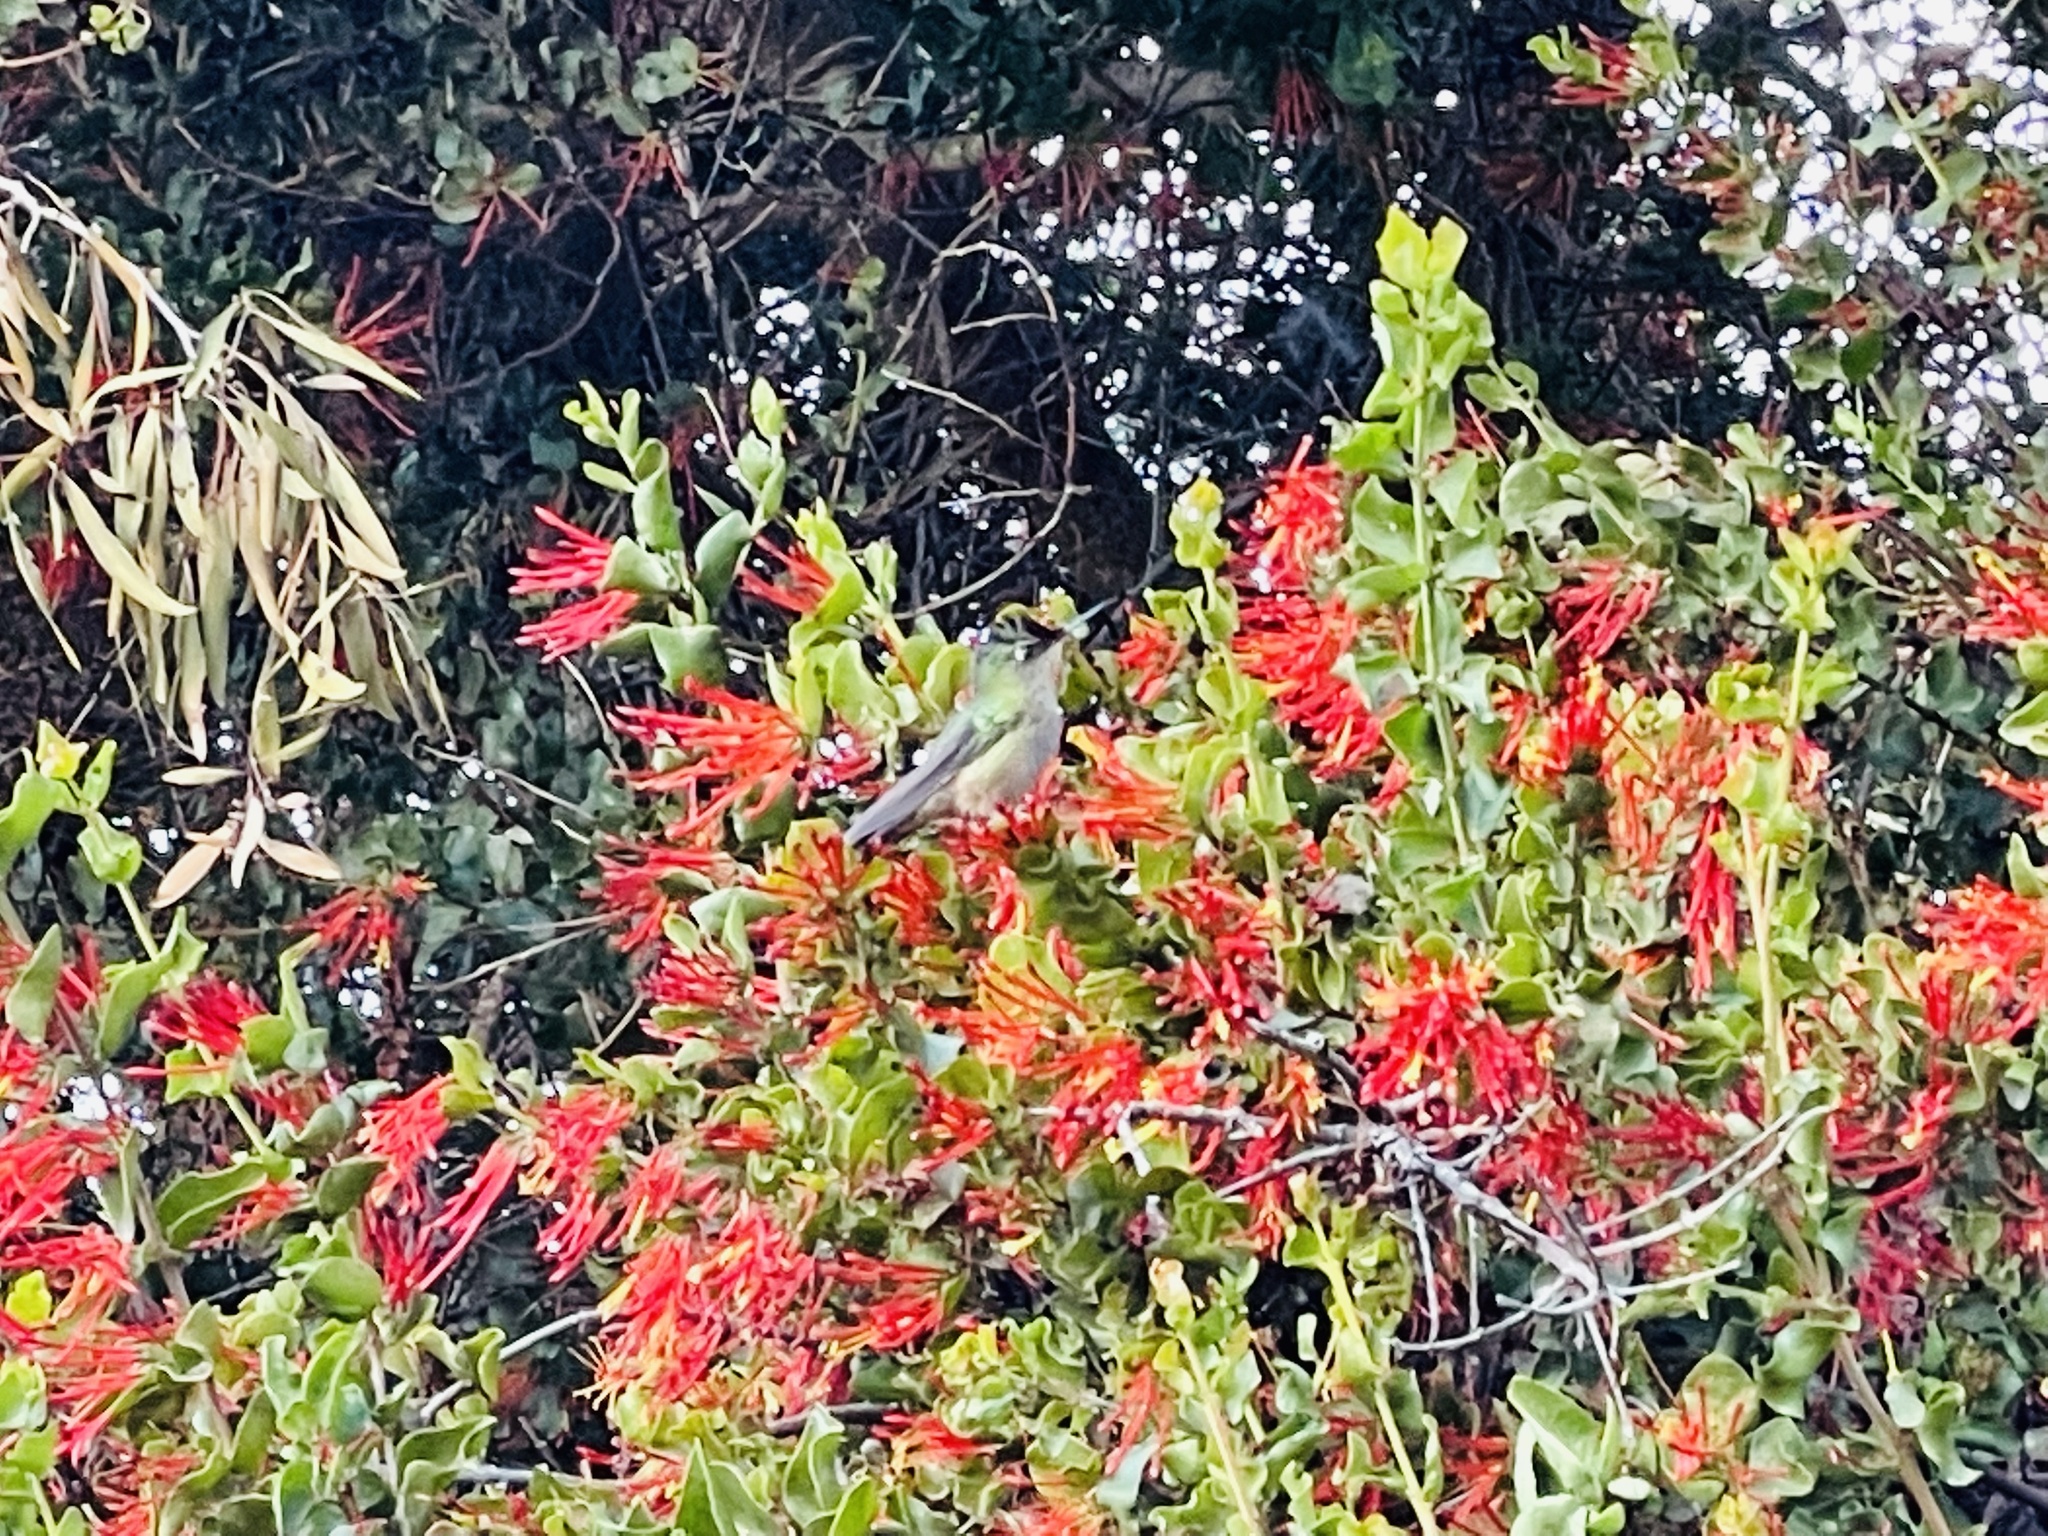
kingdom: Animalia
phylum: Chordata
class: Aves
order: Apodiformes
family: Trochilidae
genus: Sephanoides
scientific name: Sephanoides sephaniodes
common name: Green-backed firecrown
